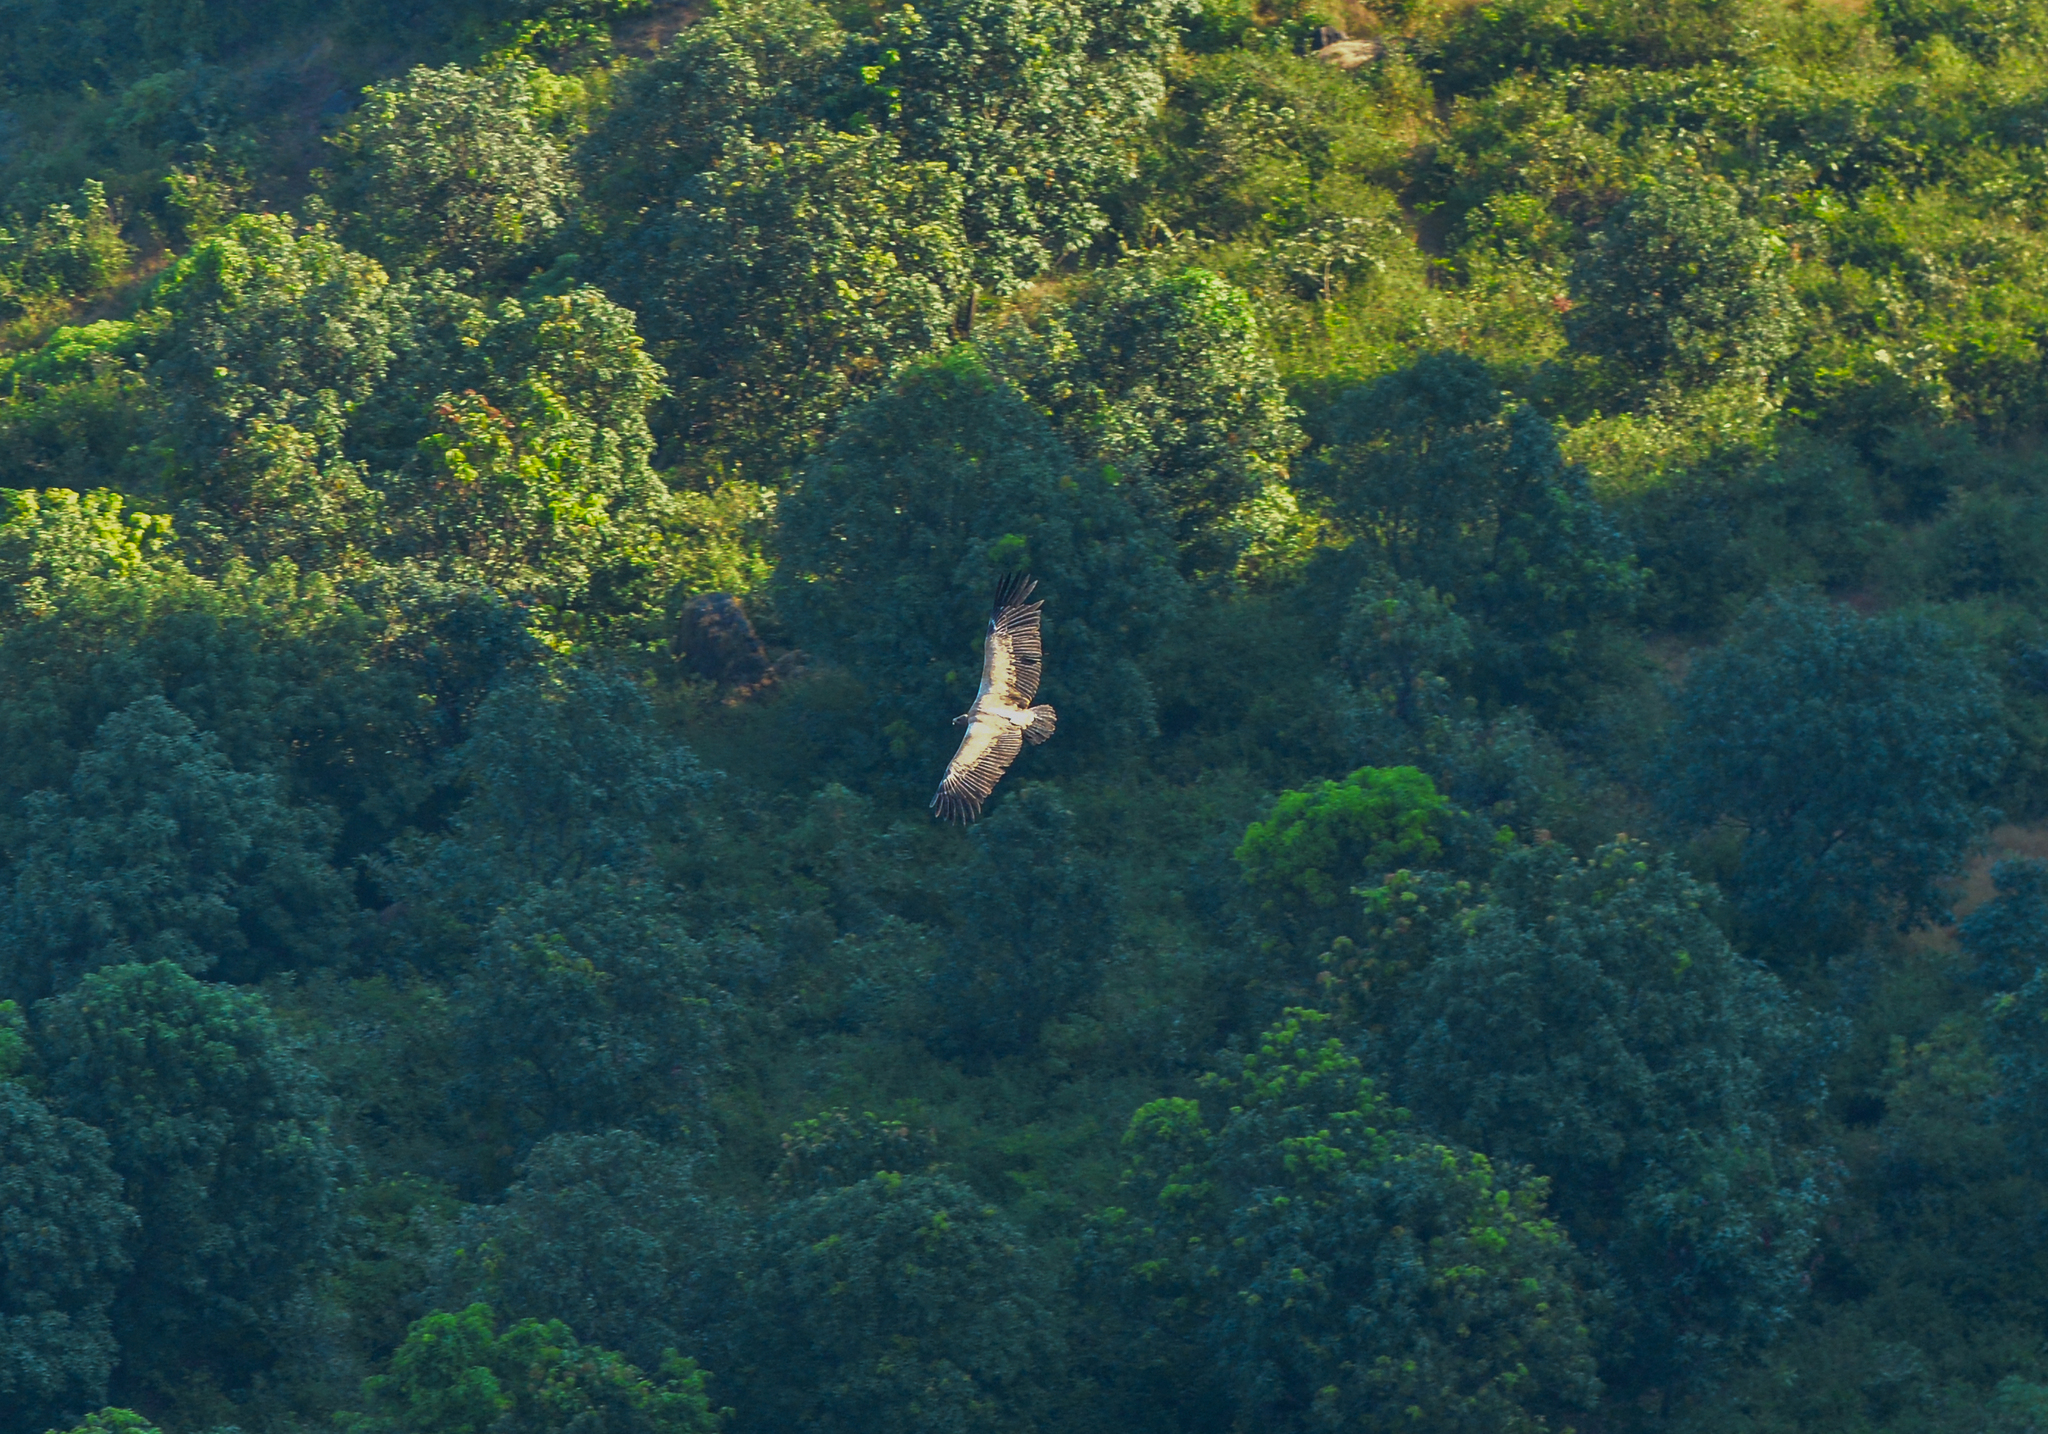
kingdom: Animalia
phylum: Chordata
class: Aves
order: Accipitriformes
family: Accipitridae
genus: Gyps
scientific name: Gyps indicus
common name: Indian vulture
